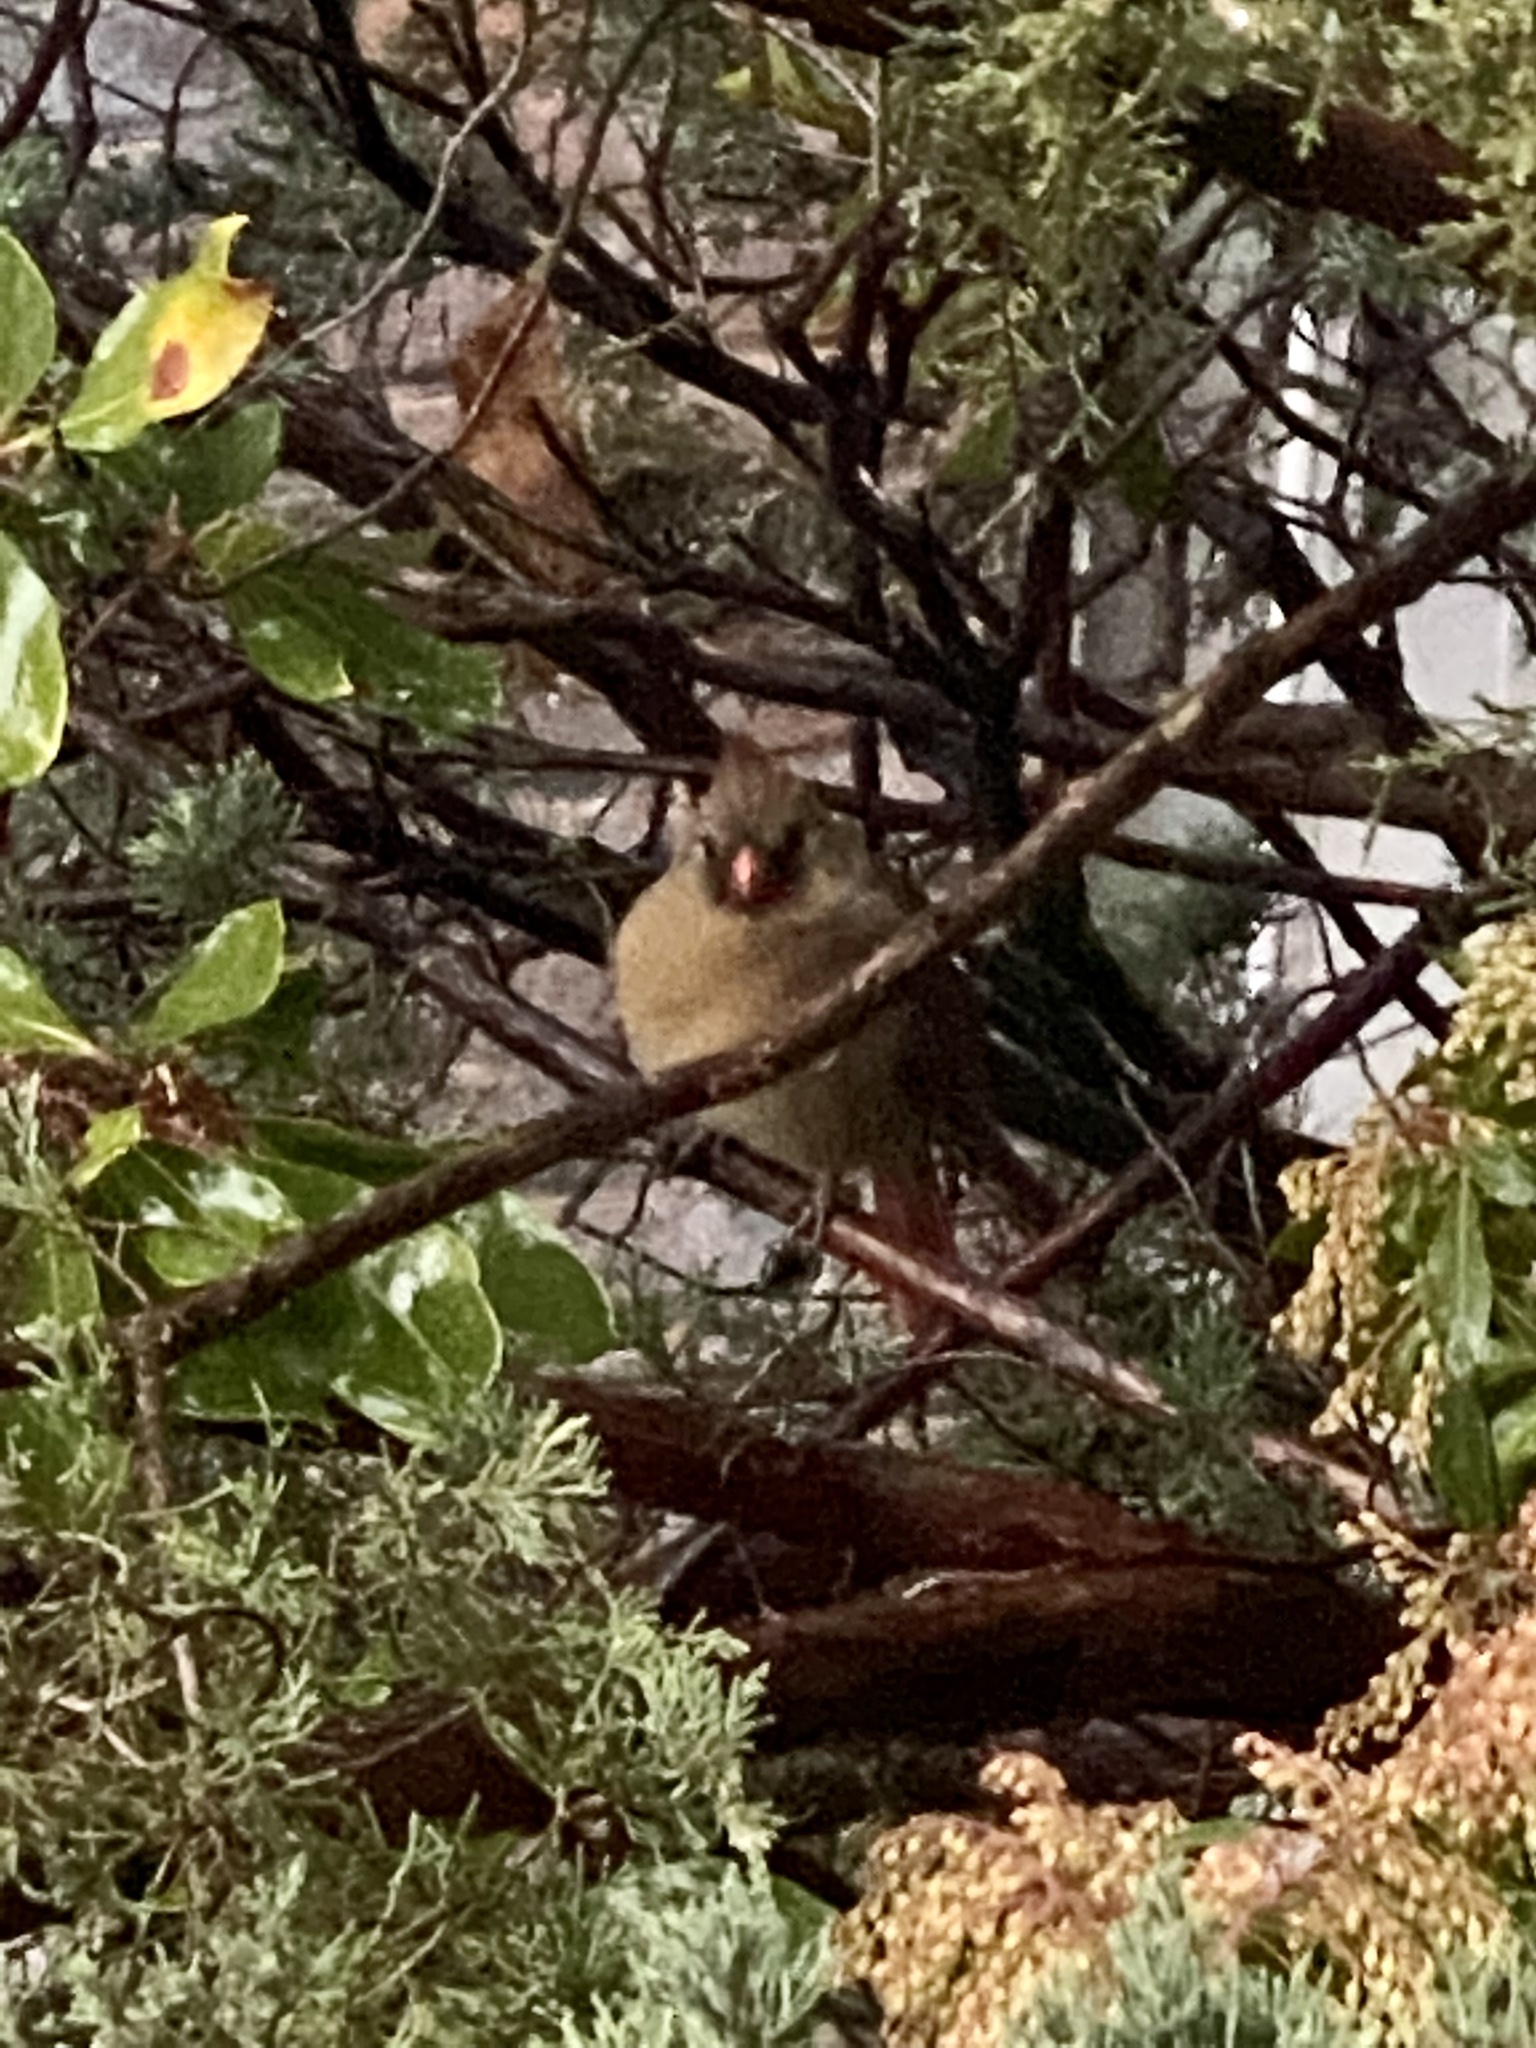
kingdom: Animalia
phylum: Chordata
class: Aves
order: Passeriformes
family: Cardinalidae
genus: Cardinalis
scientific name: Cardinalis cardinalis
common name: Northern cardinal
